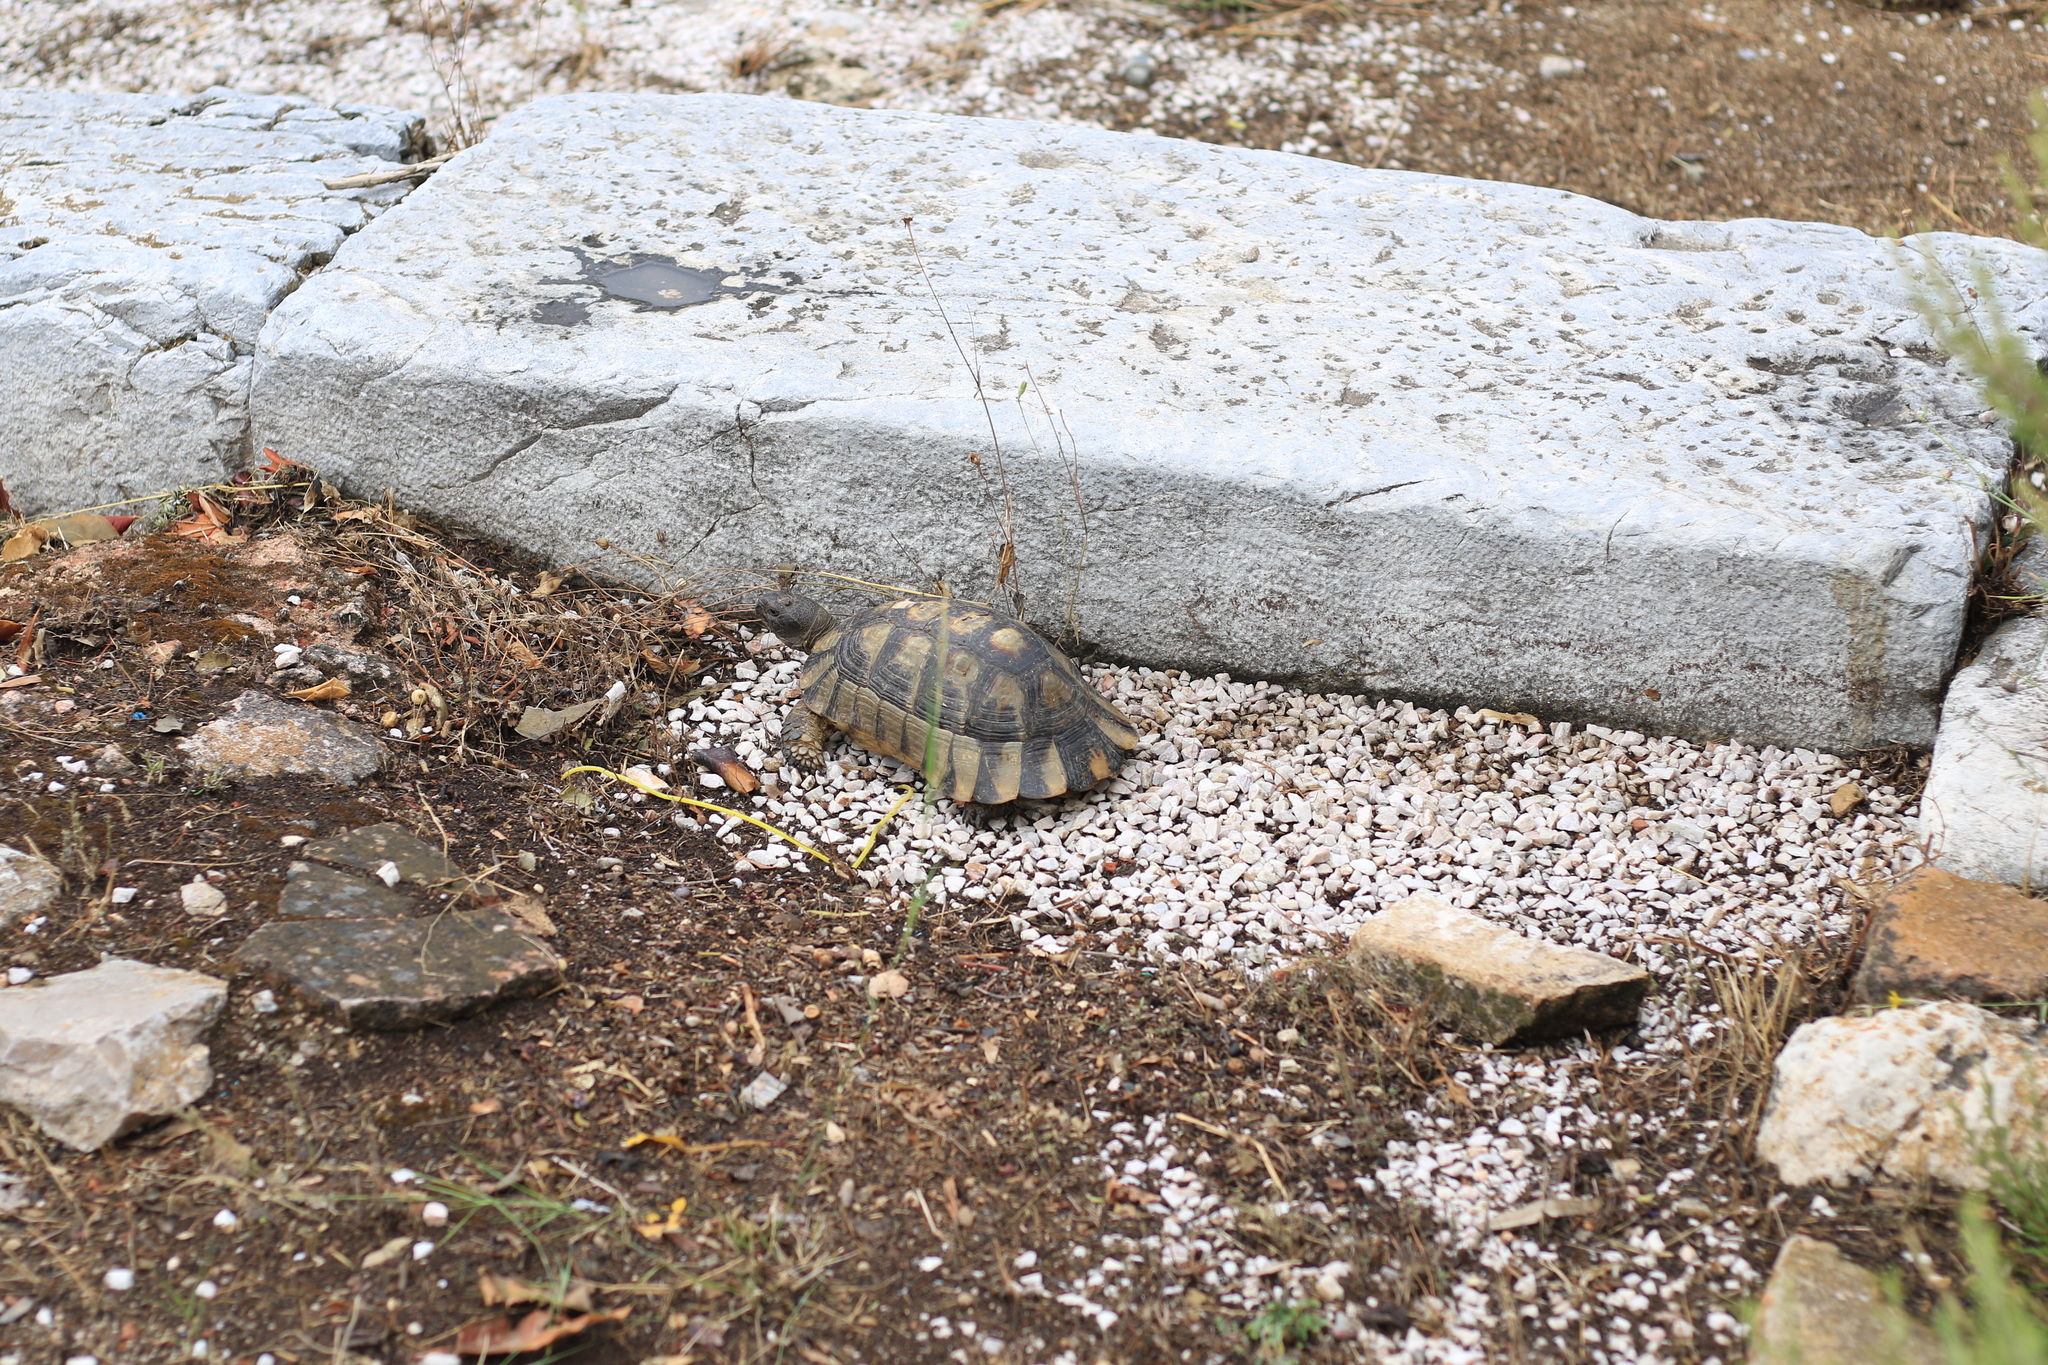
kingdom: Animalia
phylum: Chordata
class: Testudines
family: Testudinidae
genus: Testudo
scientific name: Testudo marginata
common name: Marginated tortoise
